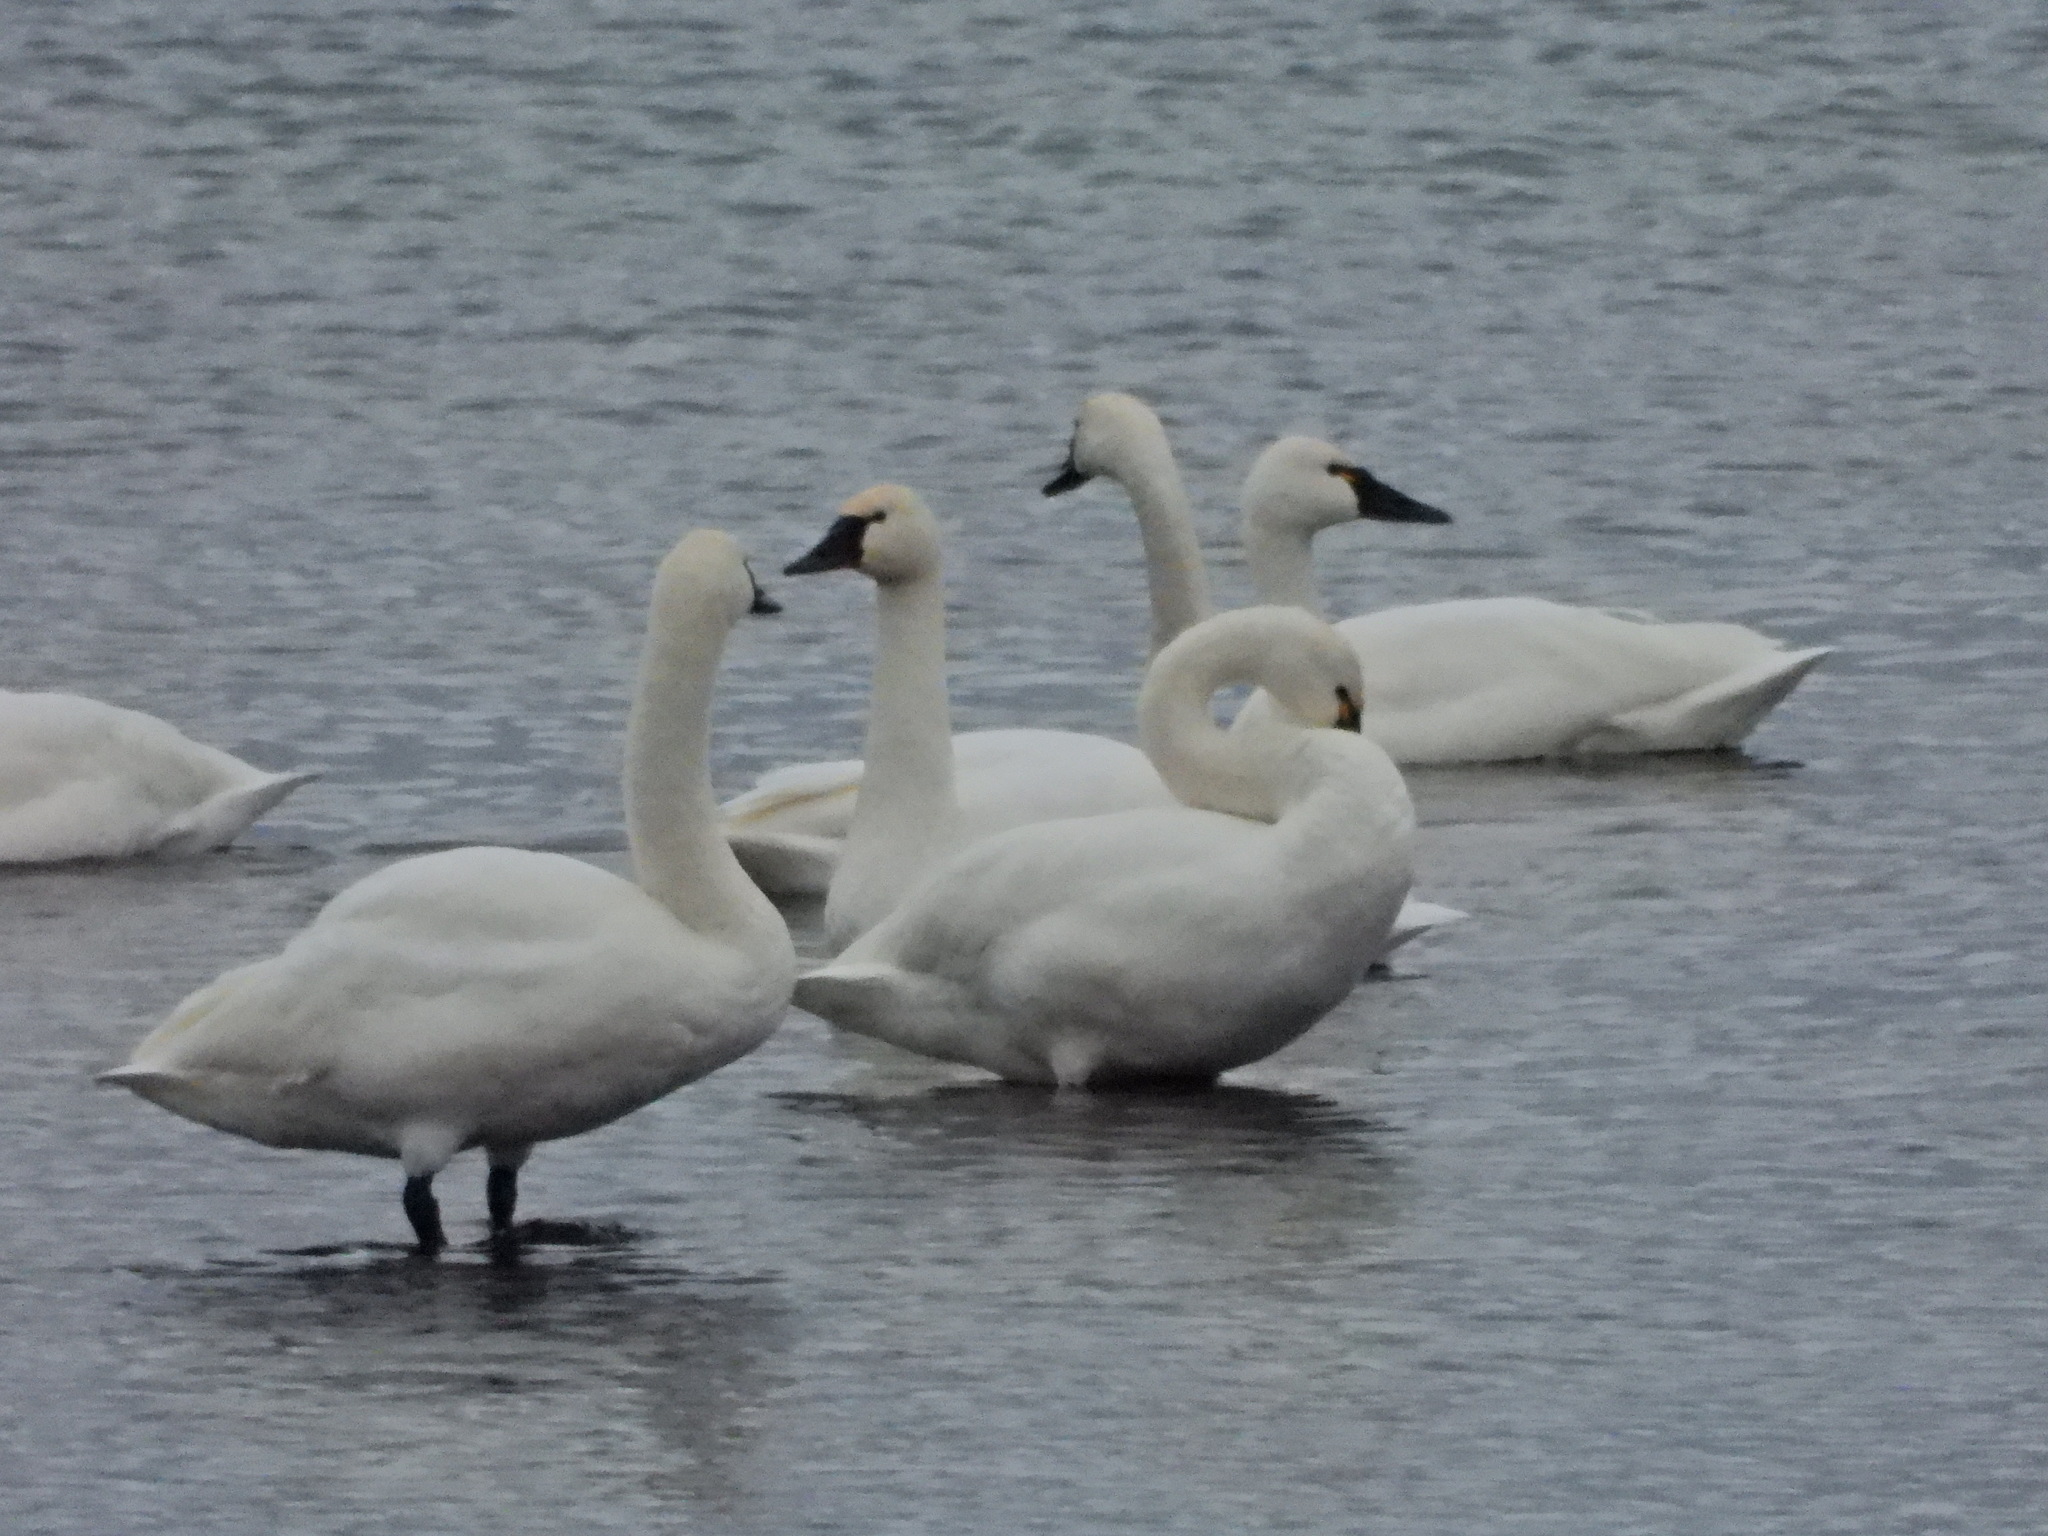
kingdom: Animalia
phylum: Chordata
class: Aves
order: Anseriformes
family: Anatidae
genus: Cygnus
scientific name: Cygnus columbianus
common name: Tundra swan
